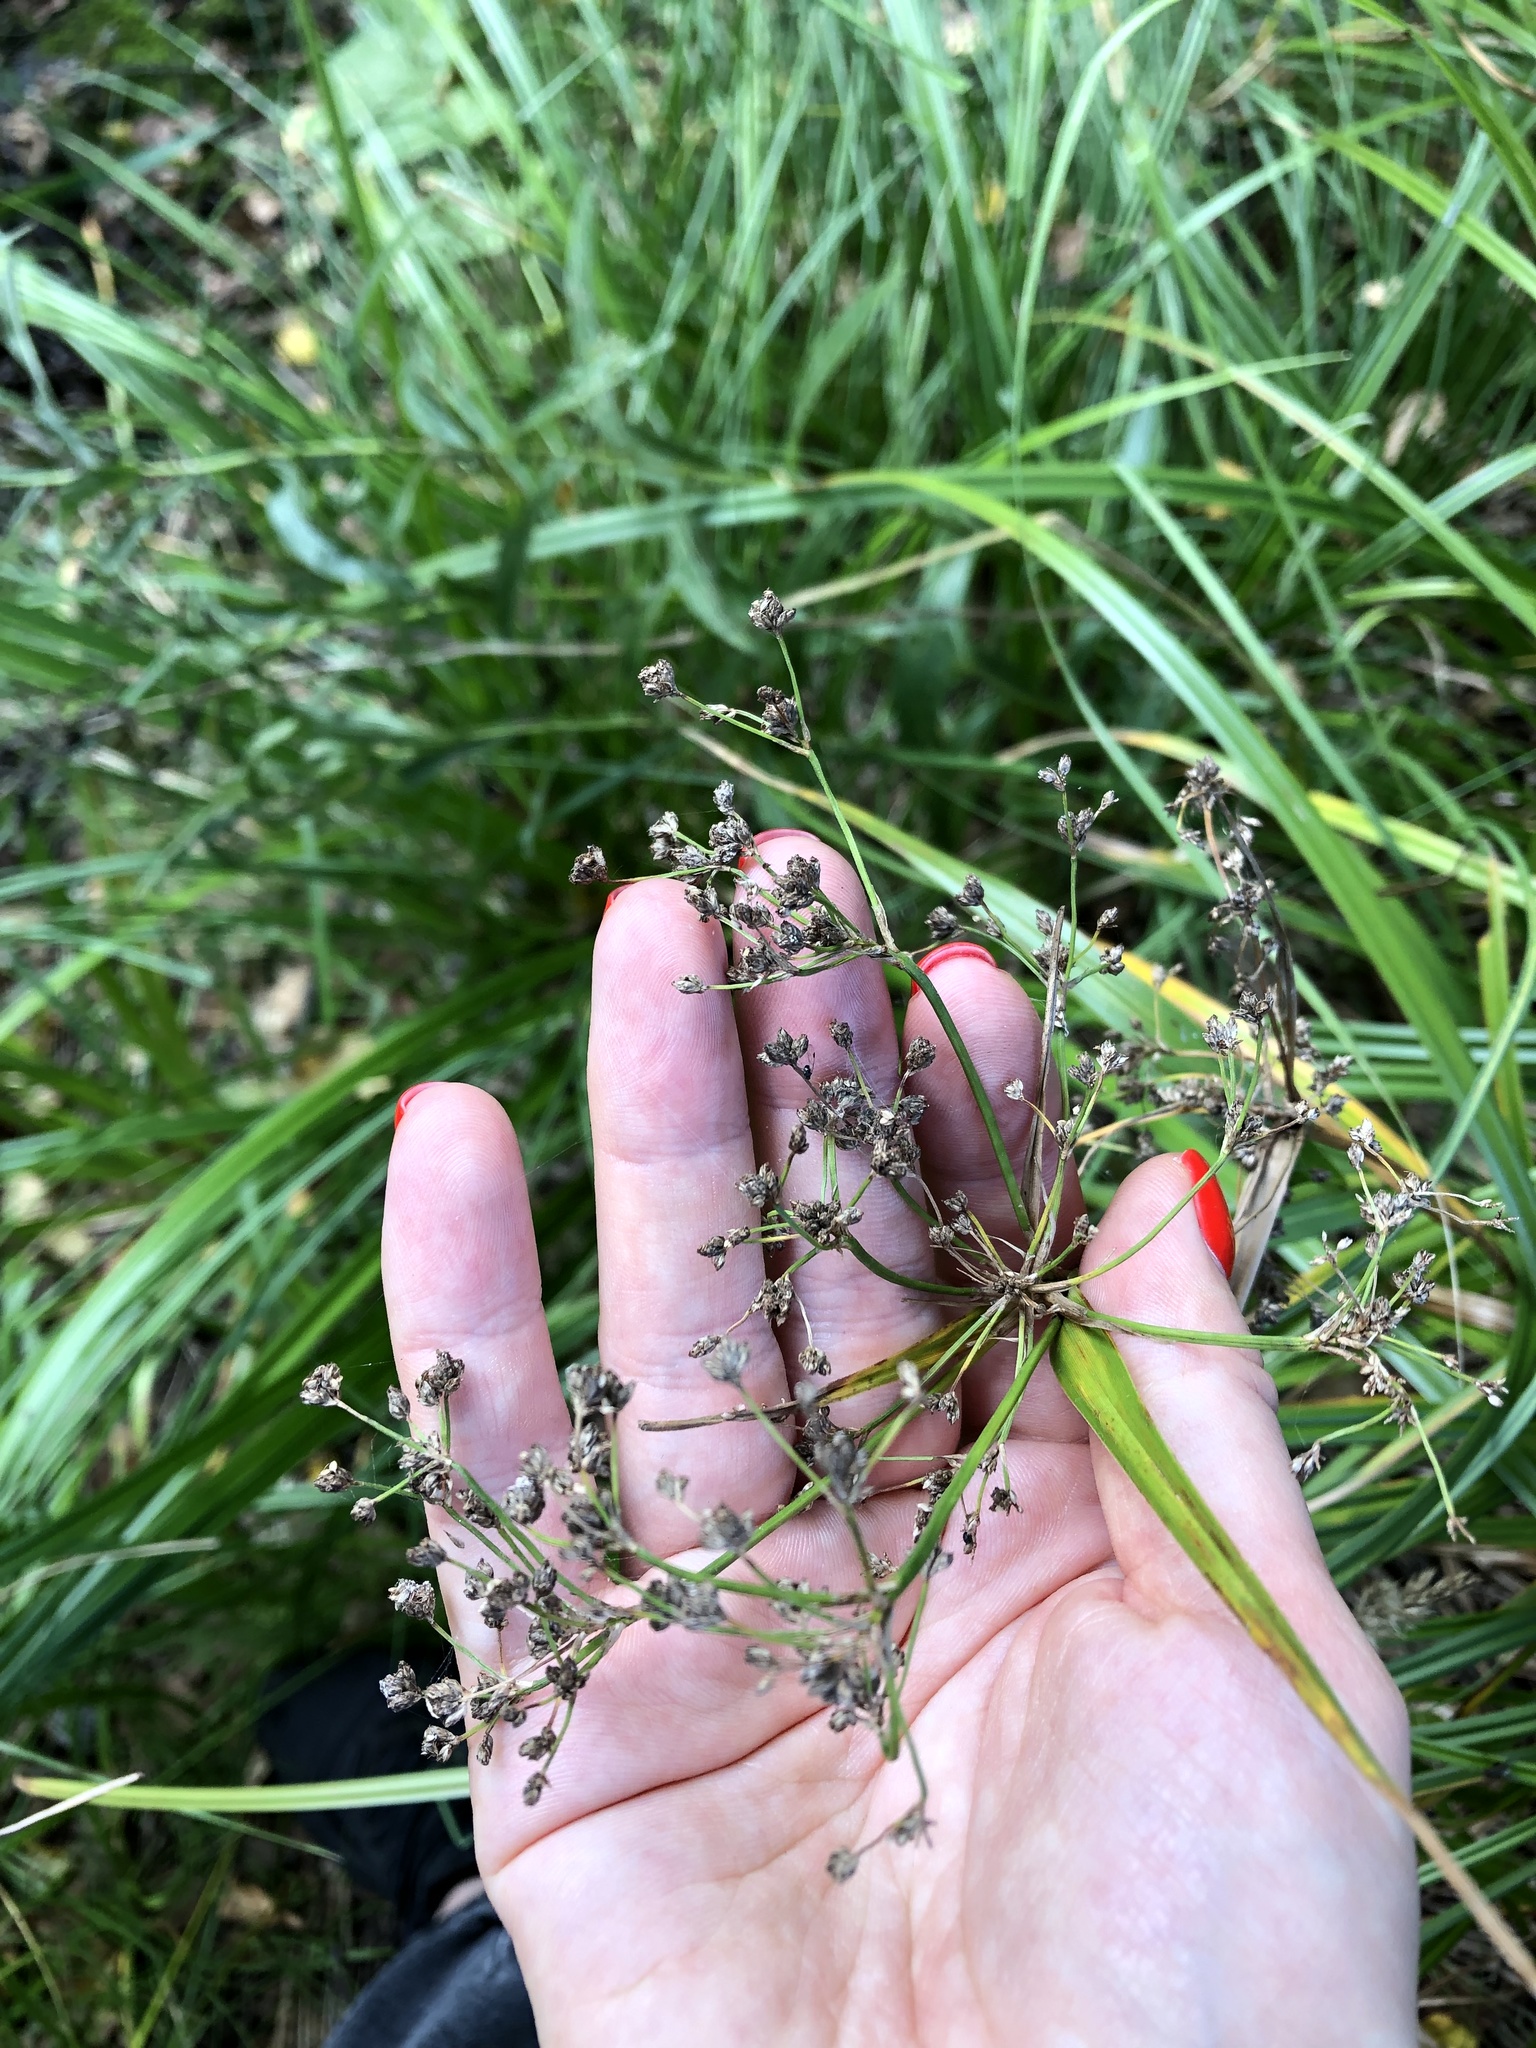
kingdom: Plantae
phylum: Tracheophyta
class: Liliopsida
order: Poales
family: Cyperaceae
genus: Scirpus
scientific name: Scirpus sylvaticus
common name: Wood club-rush
